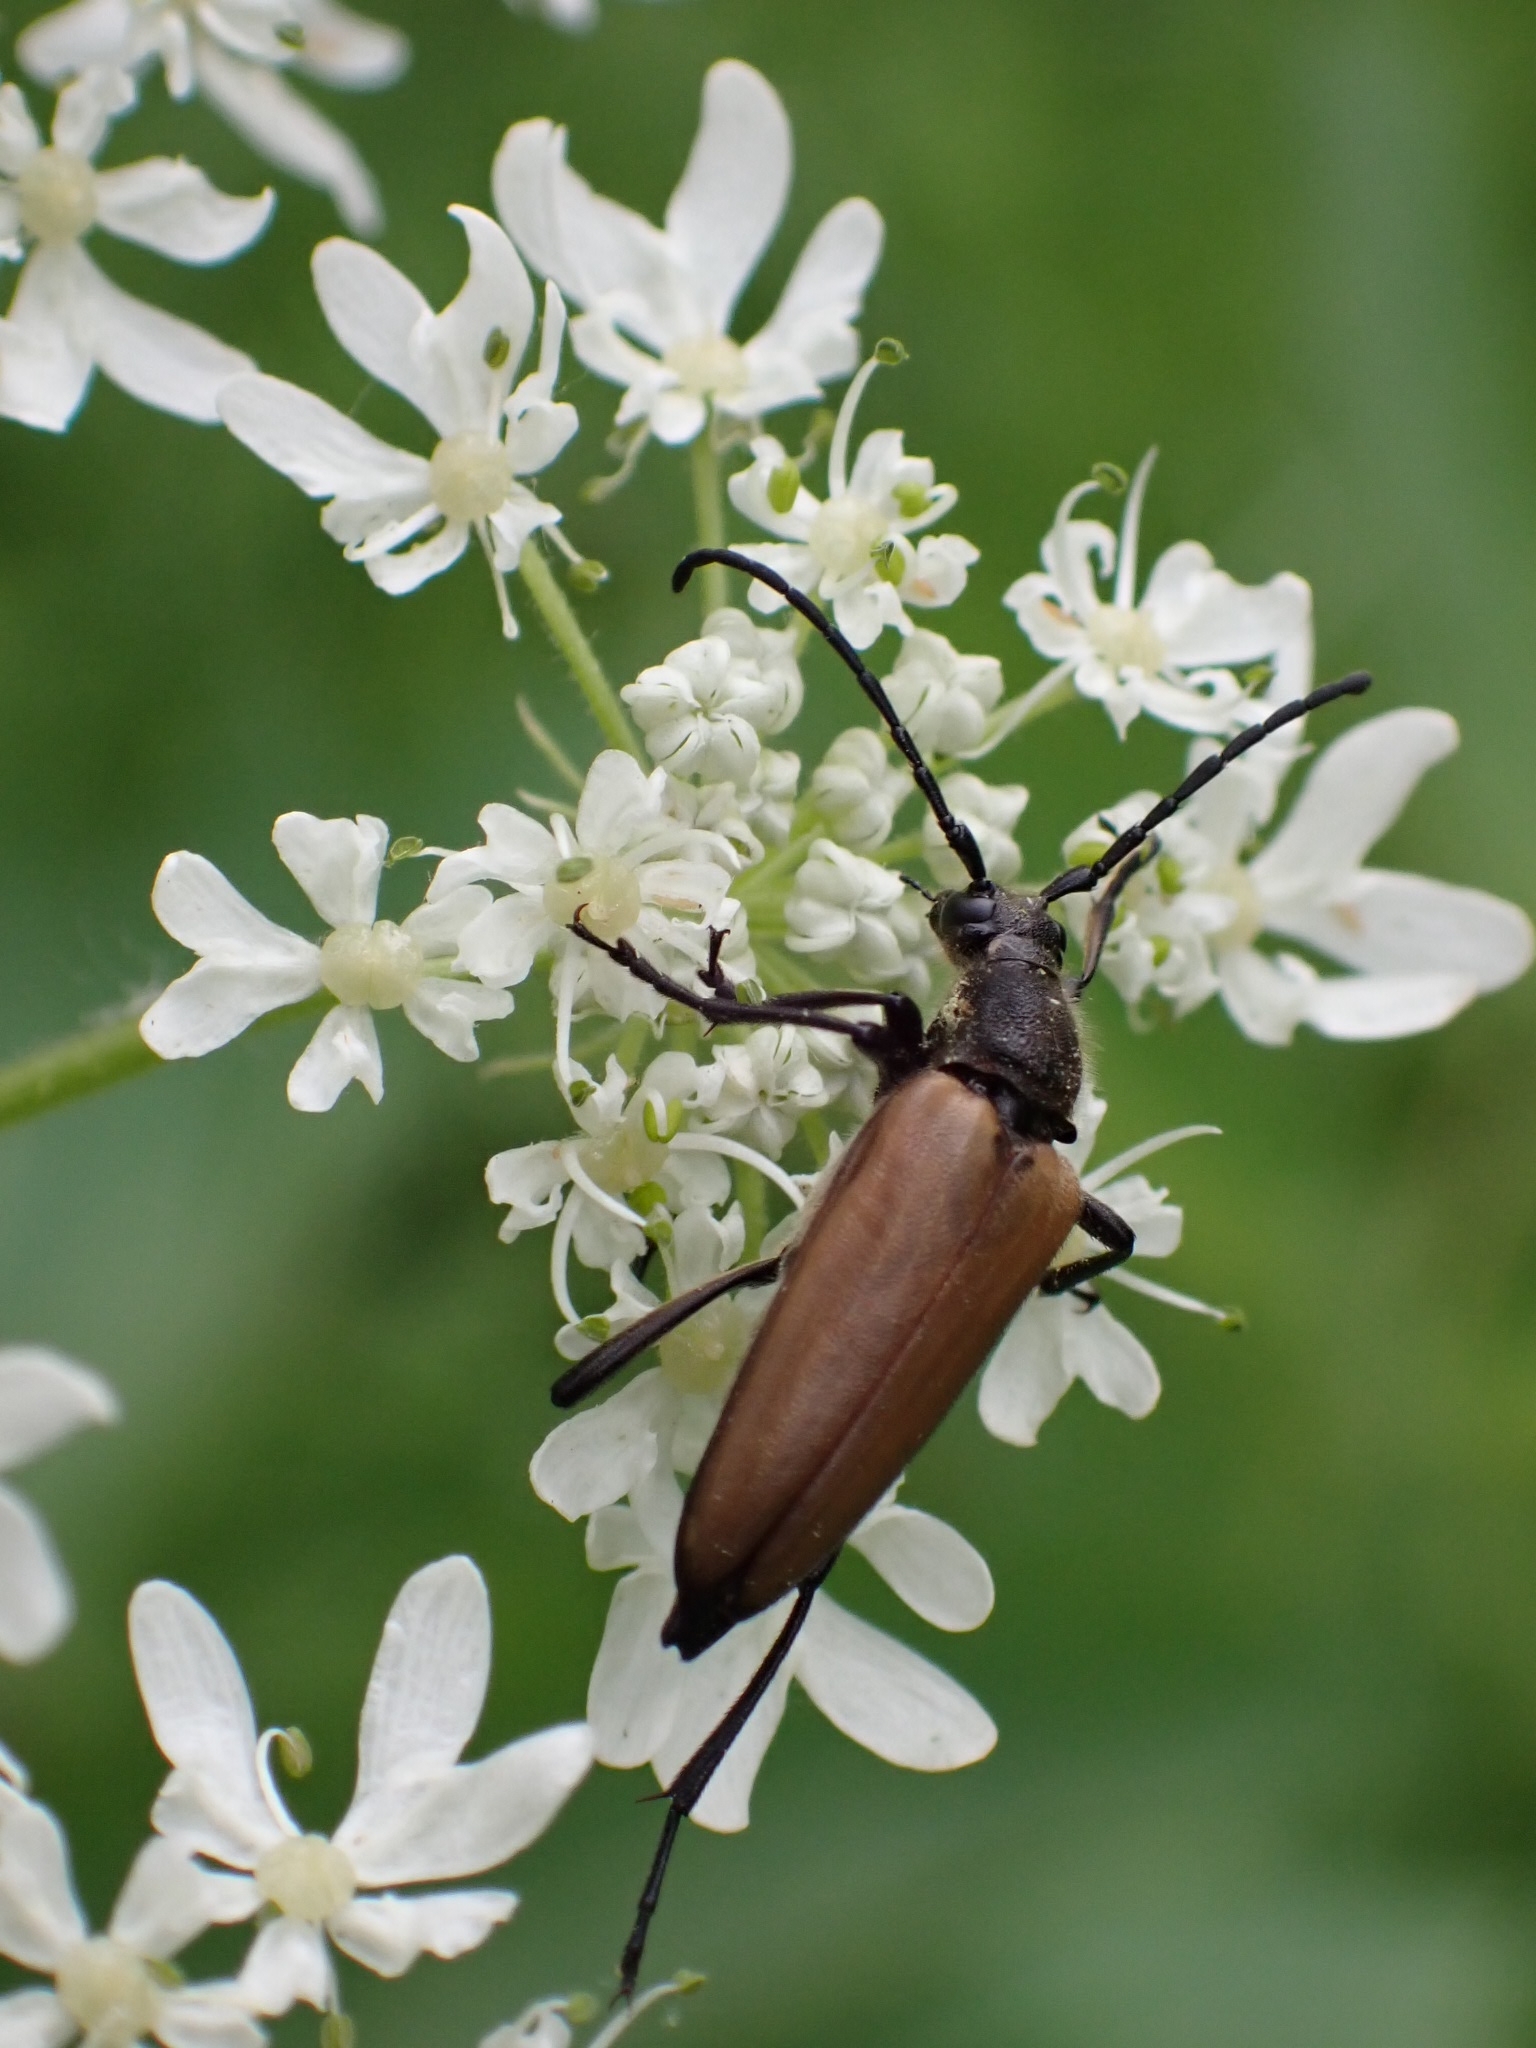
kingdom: Animalia
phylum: Arthropoda
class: Insecta
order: Coleoptera
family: Cerambycidae
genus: Lepturalia
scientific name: Lepturalia nigripes
